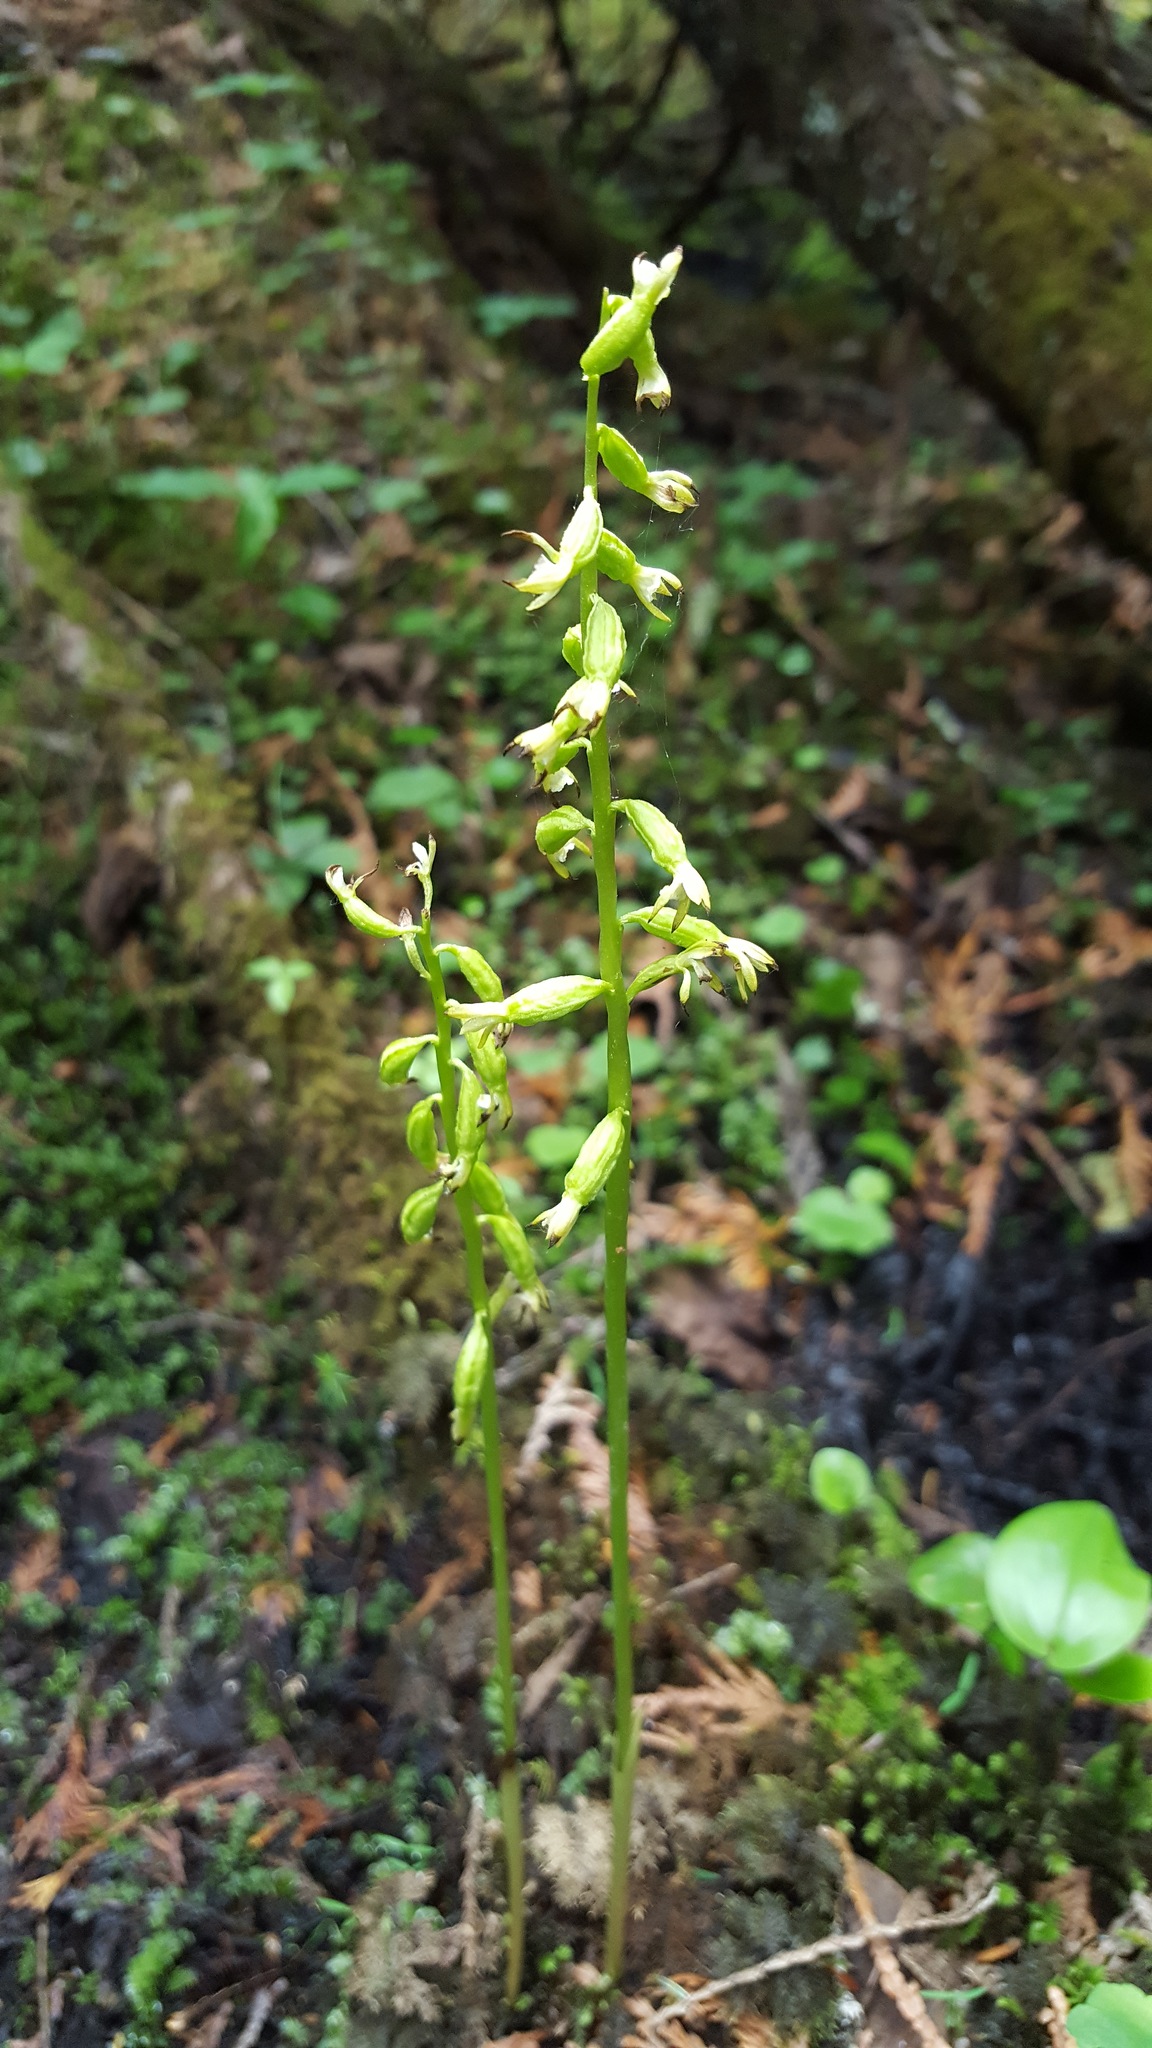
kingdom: Plantae
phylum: Tracheophyta
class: Liliopsida
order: Asparagales
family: Orchidaceae
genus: Corallorhiza
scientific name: Corallorhiza trifida
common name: Yellow coralroot
